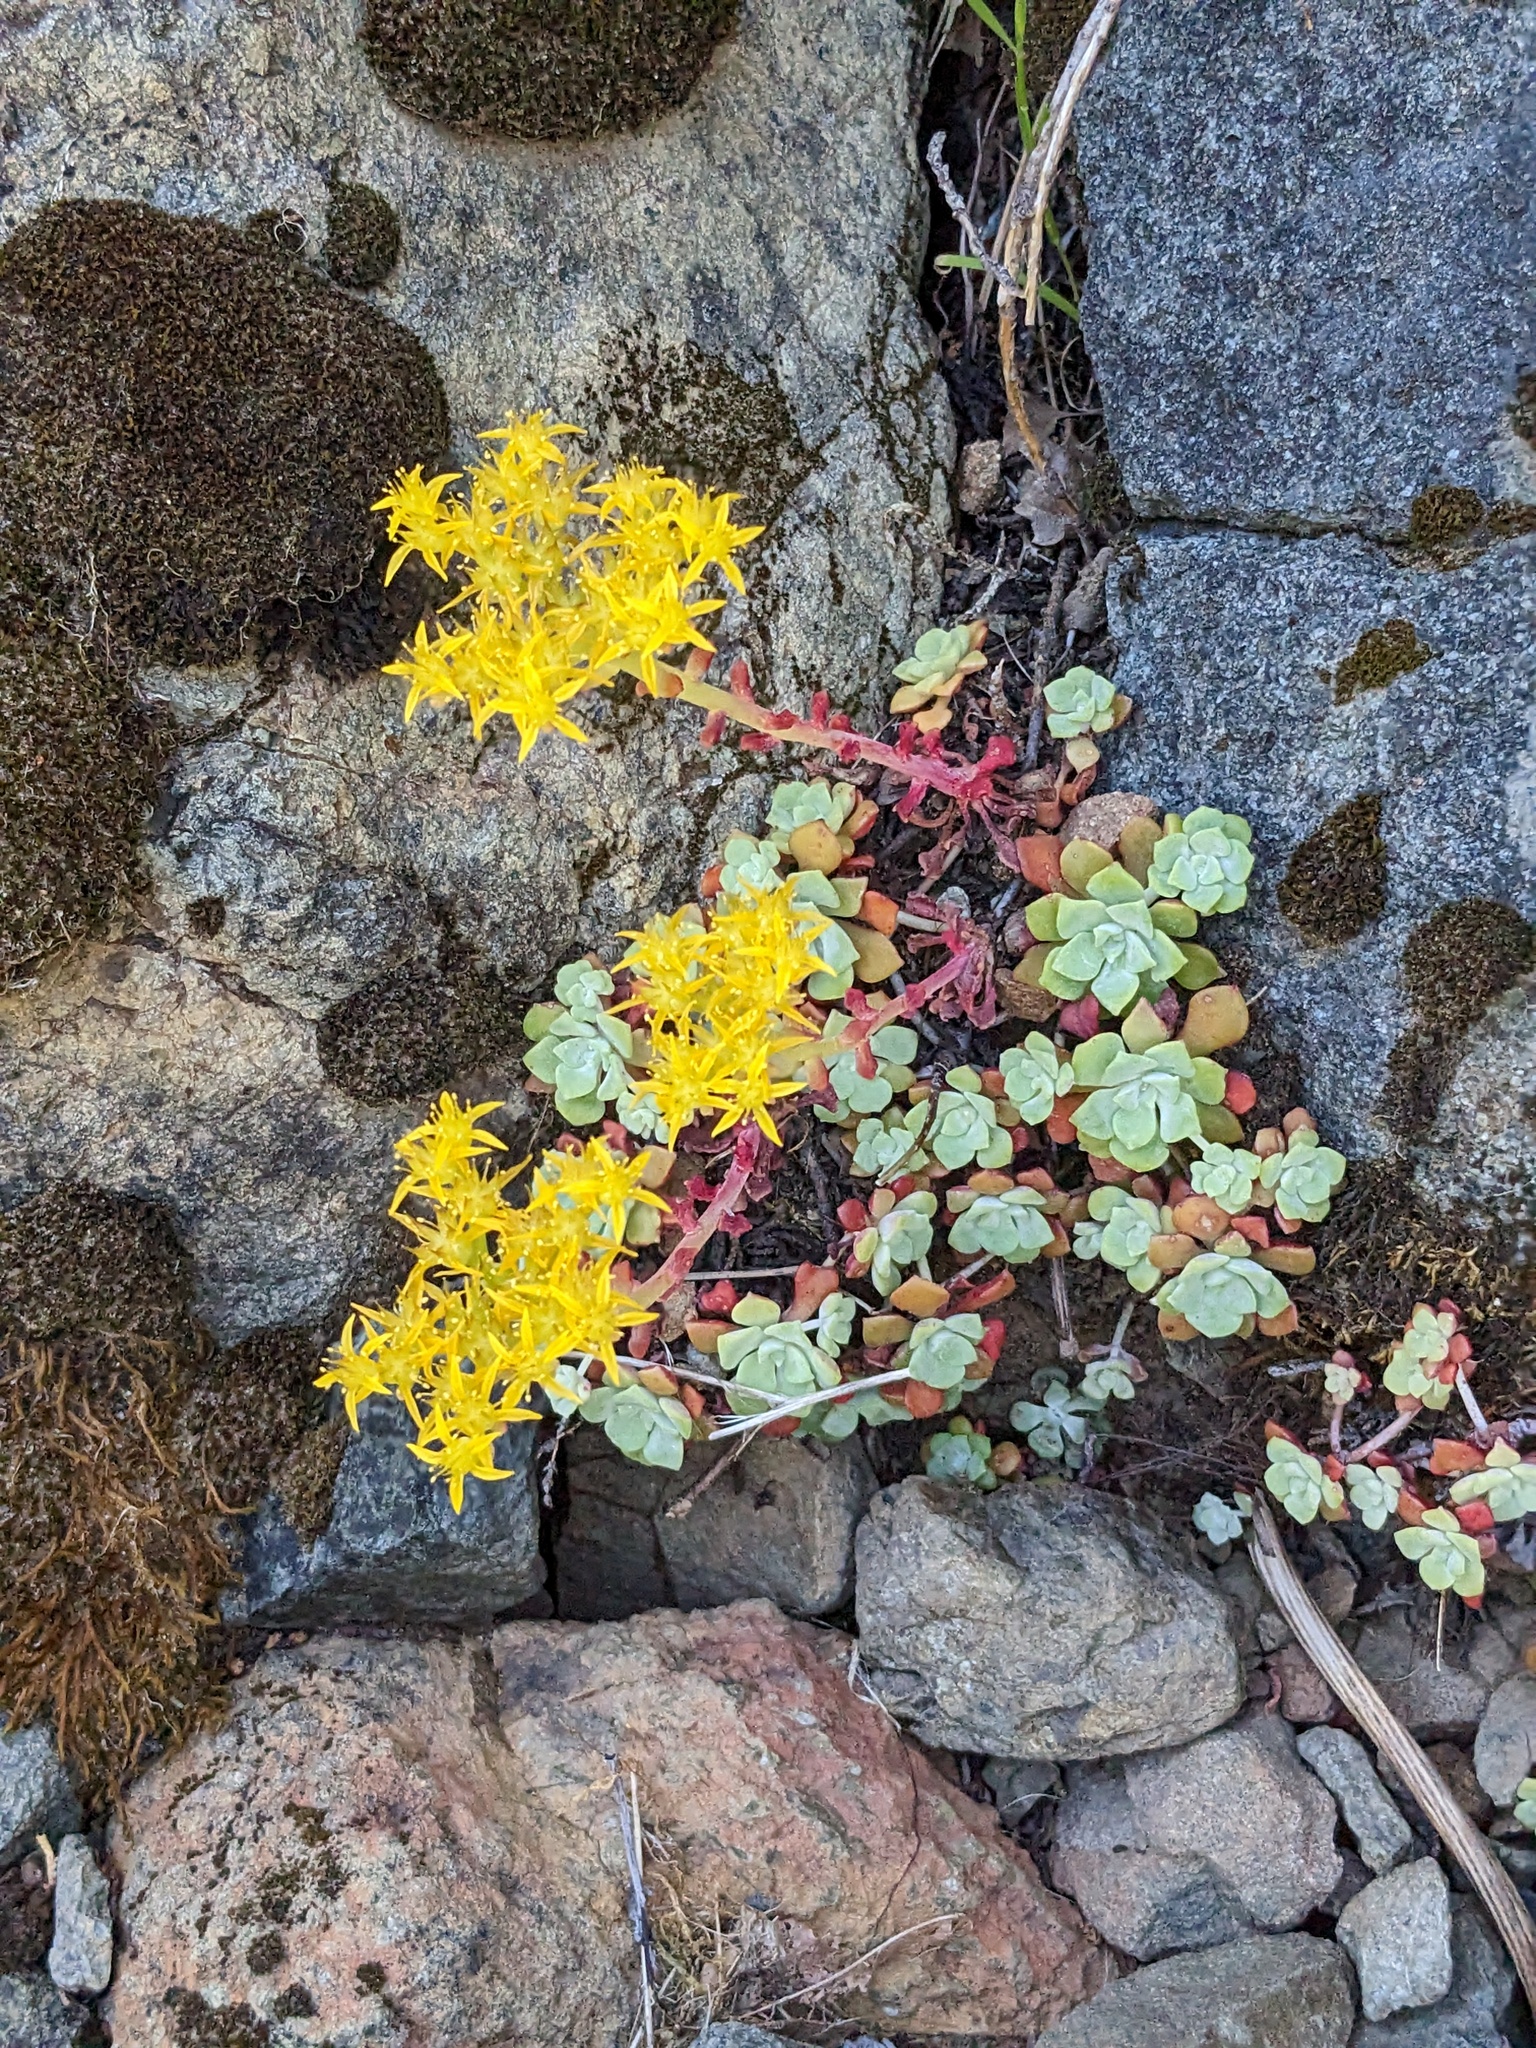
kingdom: Plantae
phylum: Tracheophyta
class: Magnoliopsida
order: Saxifragales
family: Crassulaceae
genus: Sedum
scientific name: Sedum spathulifolium
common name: Colorado stonecrop
